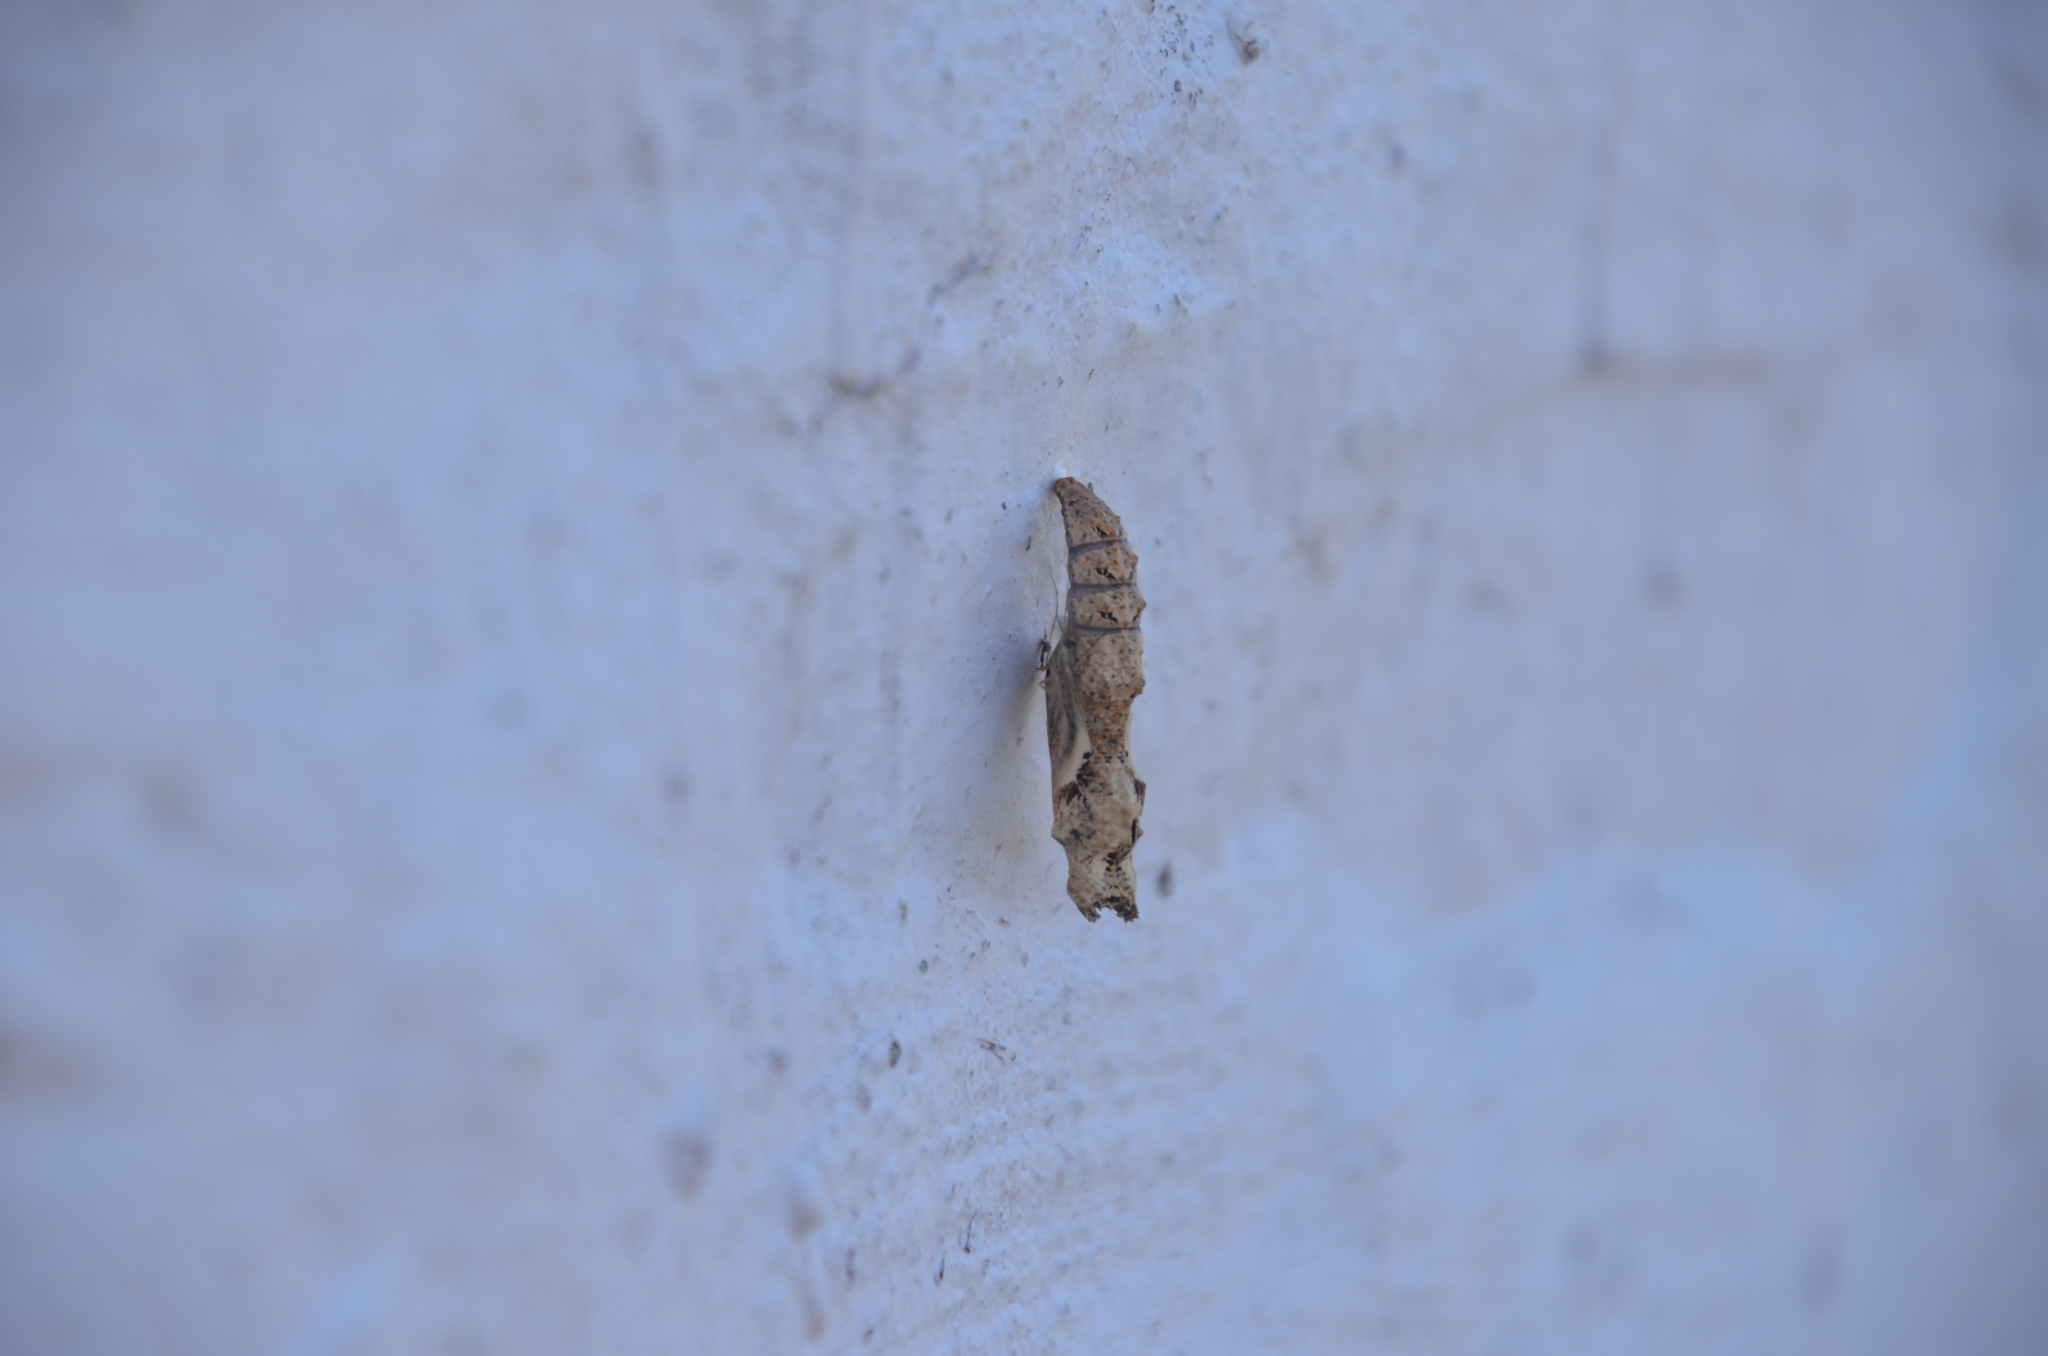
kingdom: Animalia
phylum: Arthropoda
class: Insecta
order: Lepidoptera
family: Nymphalidae
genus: Dione
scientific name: Dione vanillae
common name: Gulf fritillary
